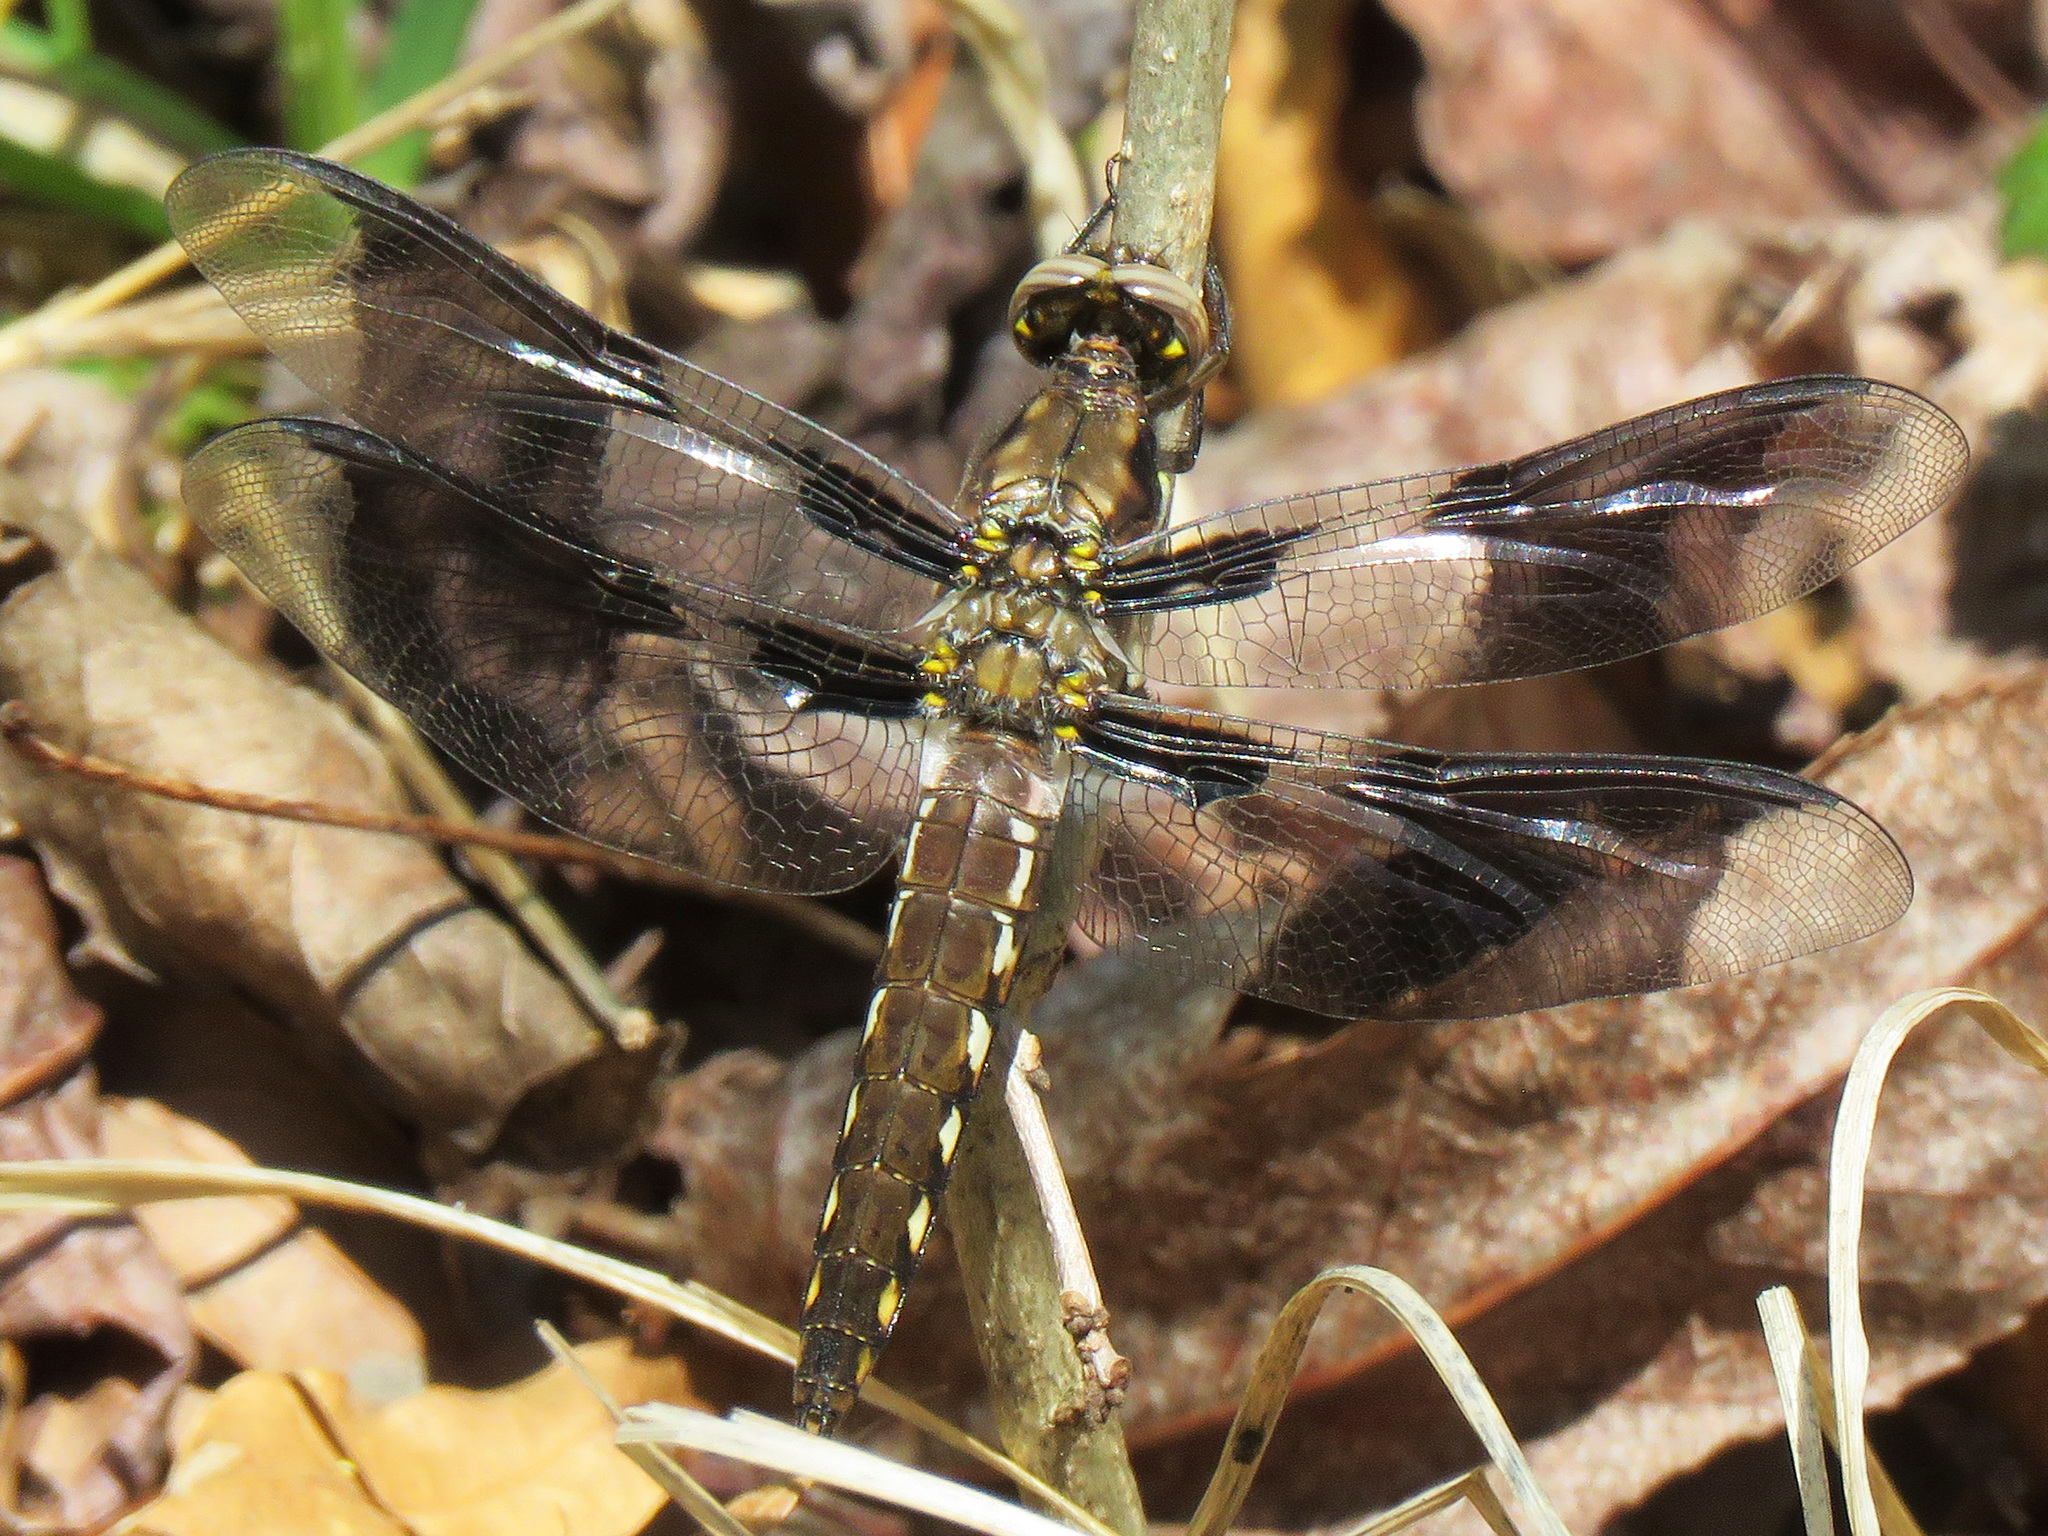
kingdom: Animalia
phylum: Arthropoda
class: Insecta
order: Odonata
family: Libellulidae
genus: Plathemis
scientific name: Plathemis lydia
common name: Common whitetail
